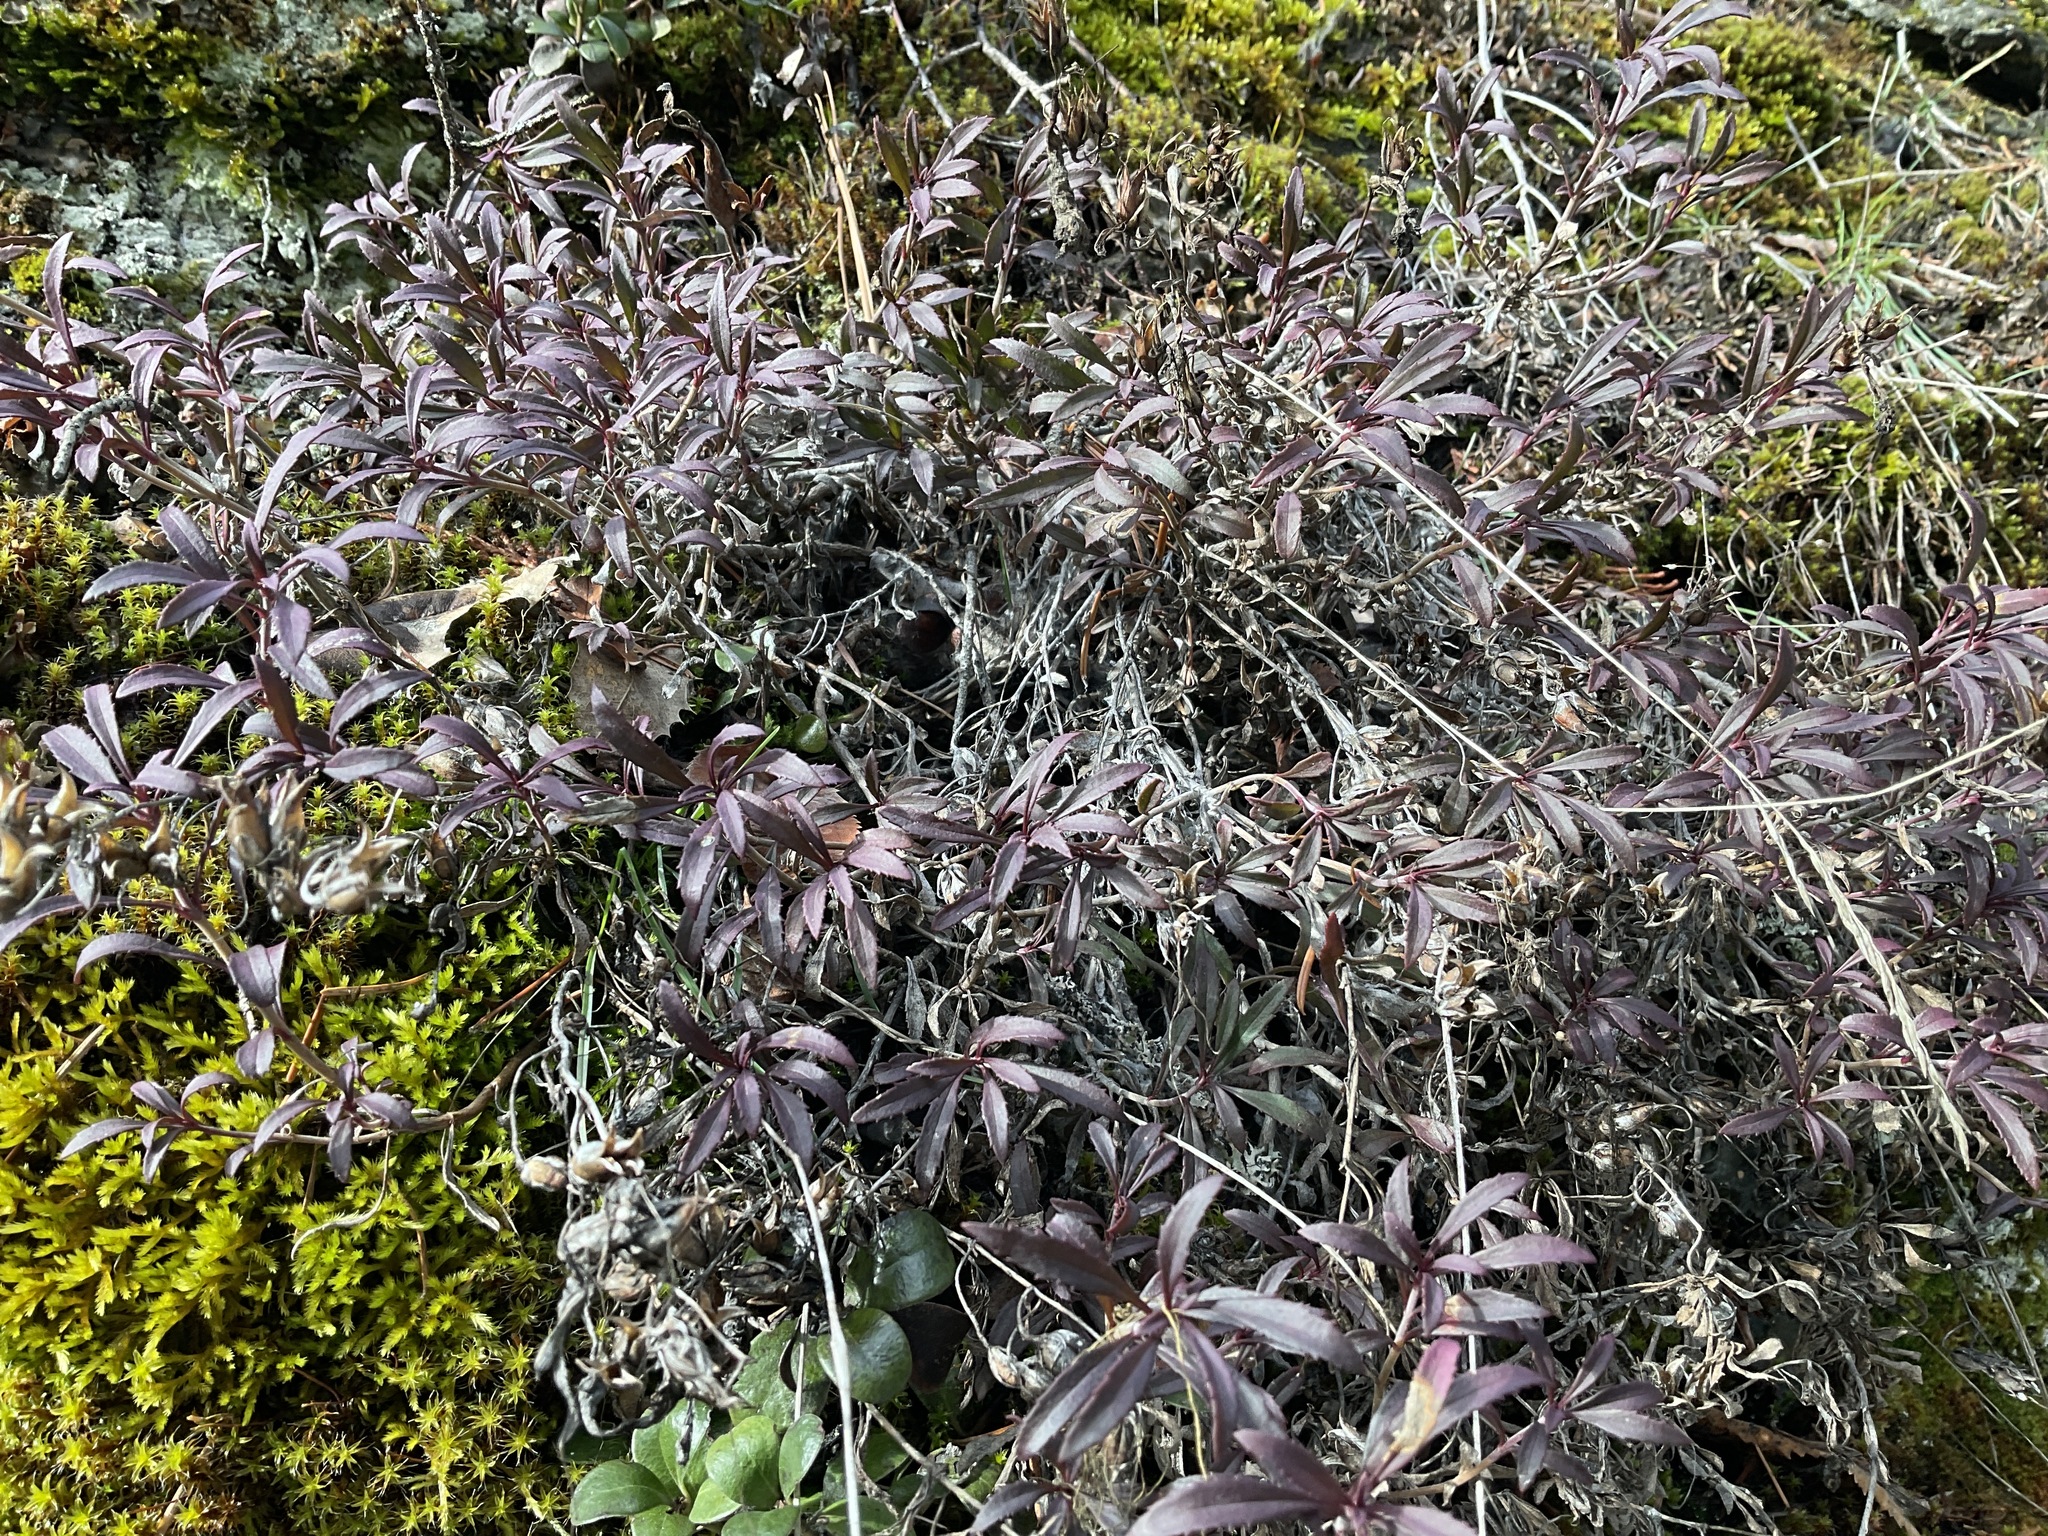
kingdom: Plantae
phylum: Tracheophyta
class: Magnoliopsida
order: Lamiales
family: Plantaginaceae
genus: Penstemon
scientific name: Penstemon fruticosus
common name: Bush penstemon
